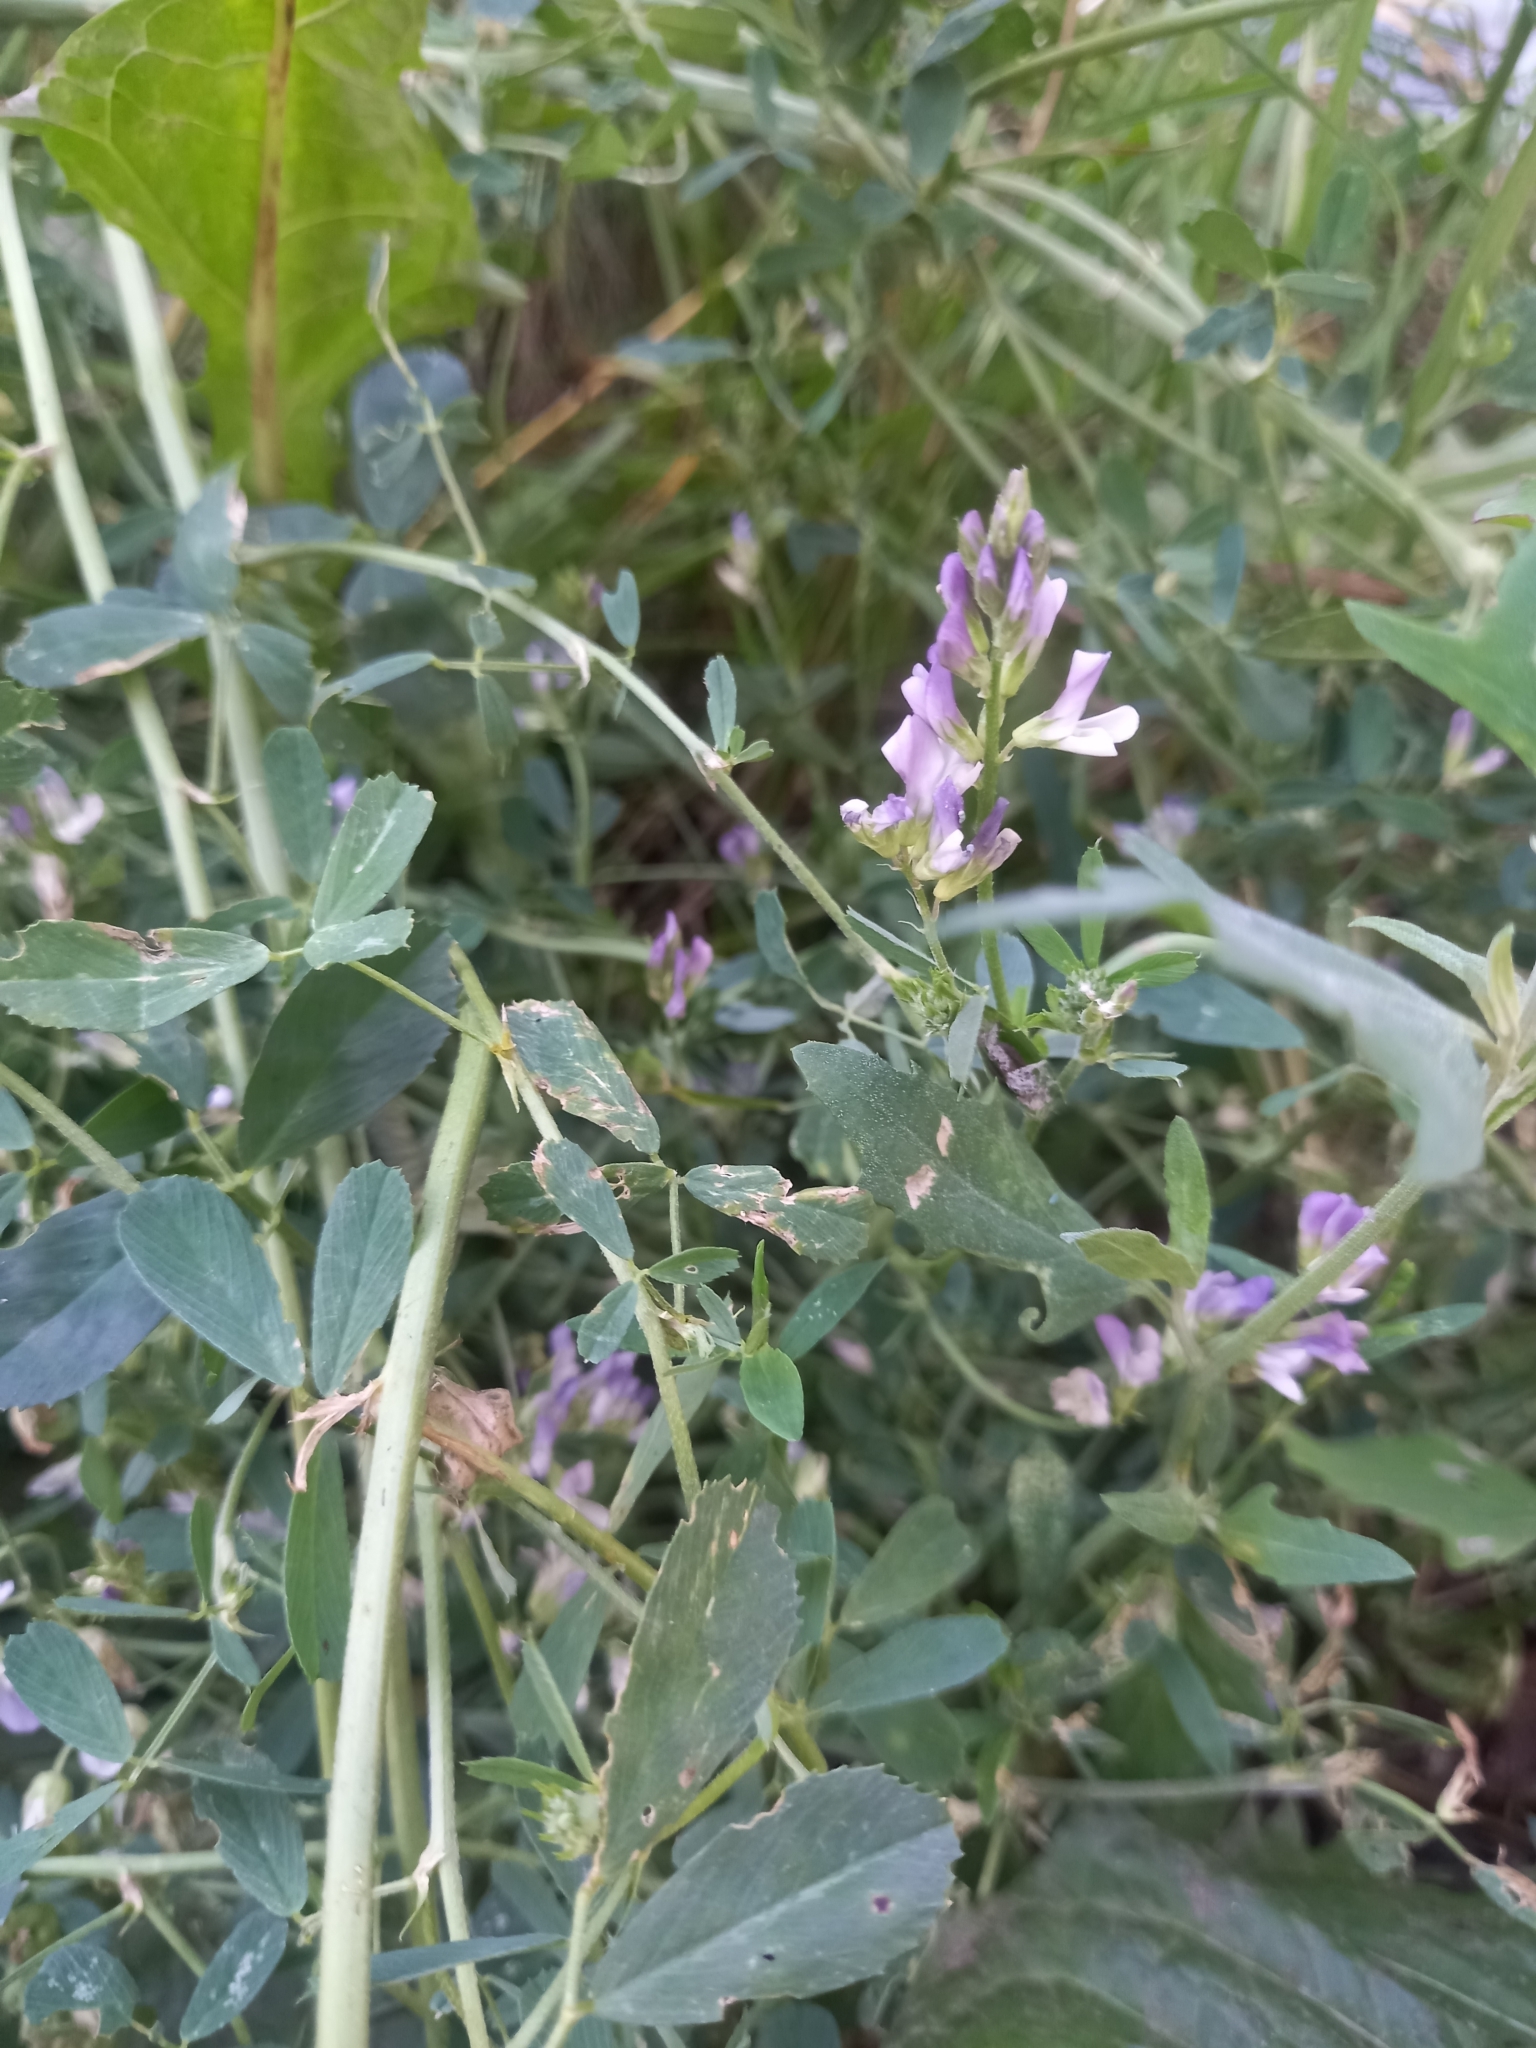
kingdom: Plantae
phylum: Tracheophyta
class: Magnoliopsida
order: Fabales
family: Fabaceae
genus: Medicago
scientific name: Medicago varia
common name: Sand lucerne
